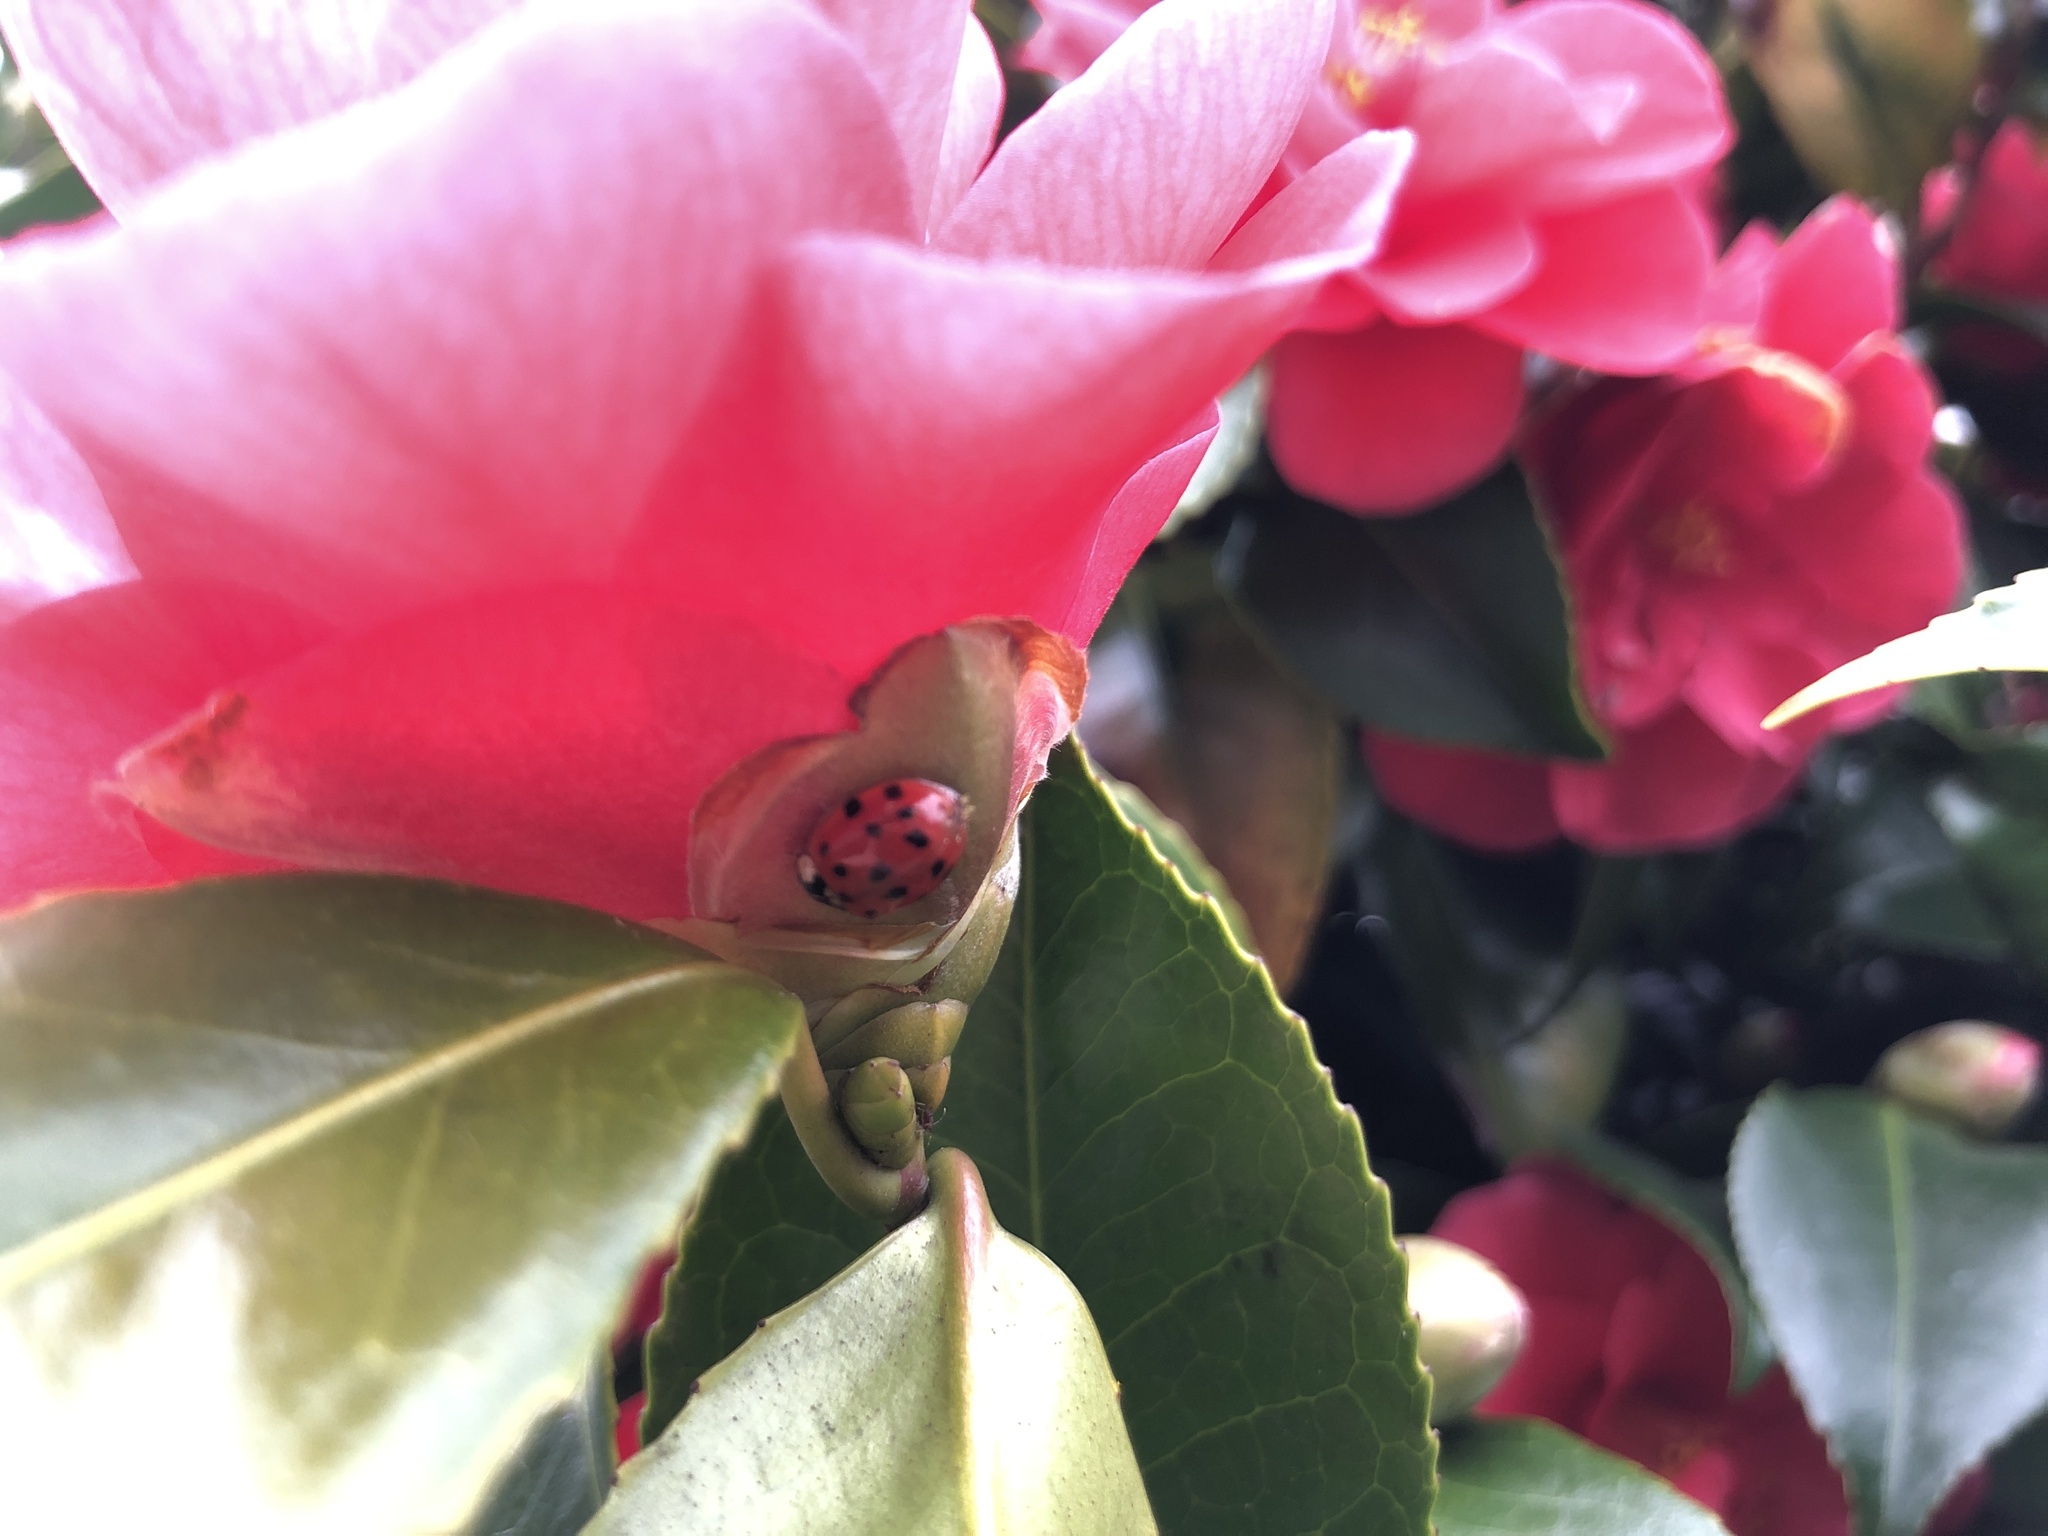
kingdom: Animalia
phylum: Arthropoda
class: Insecta
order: Coleoptera
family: Coccinellidae
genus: Harmonia
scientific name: Harmonia axyridis
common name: Harlequin ladybird
